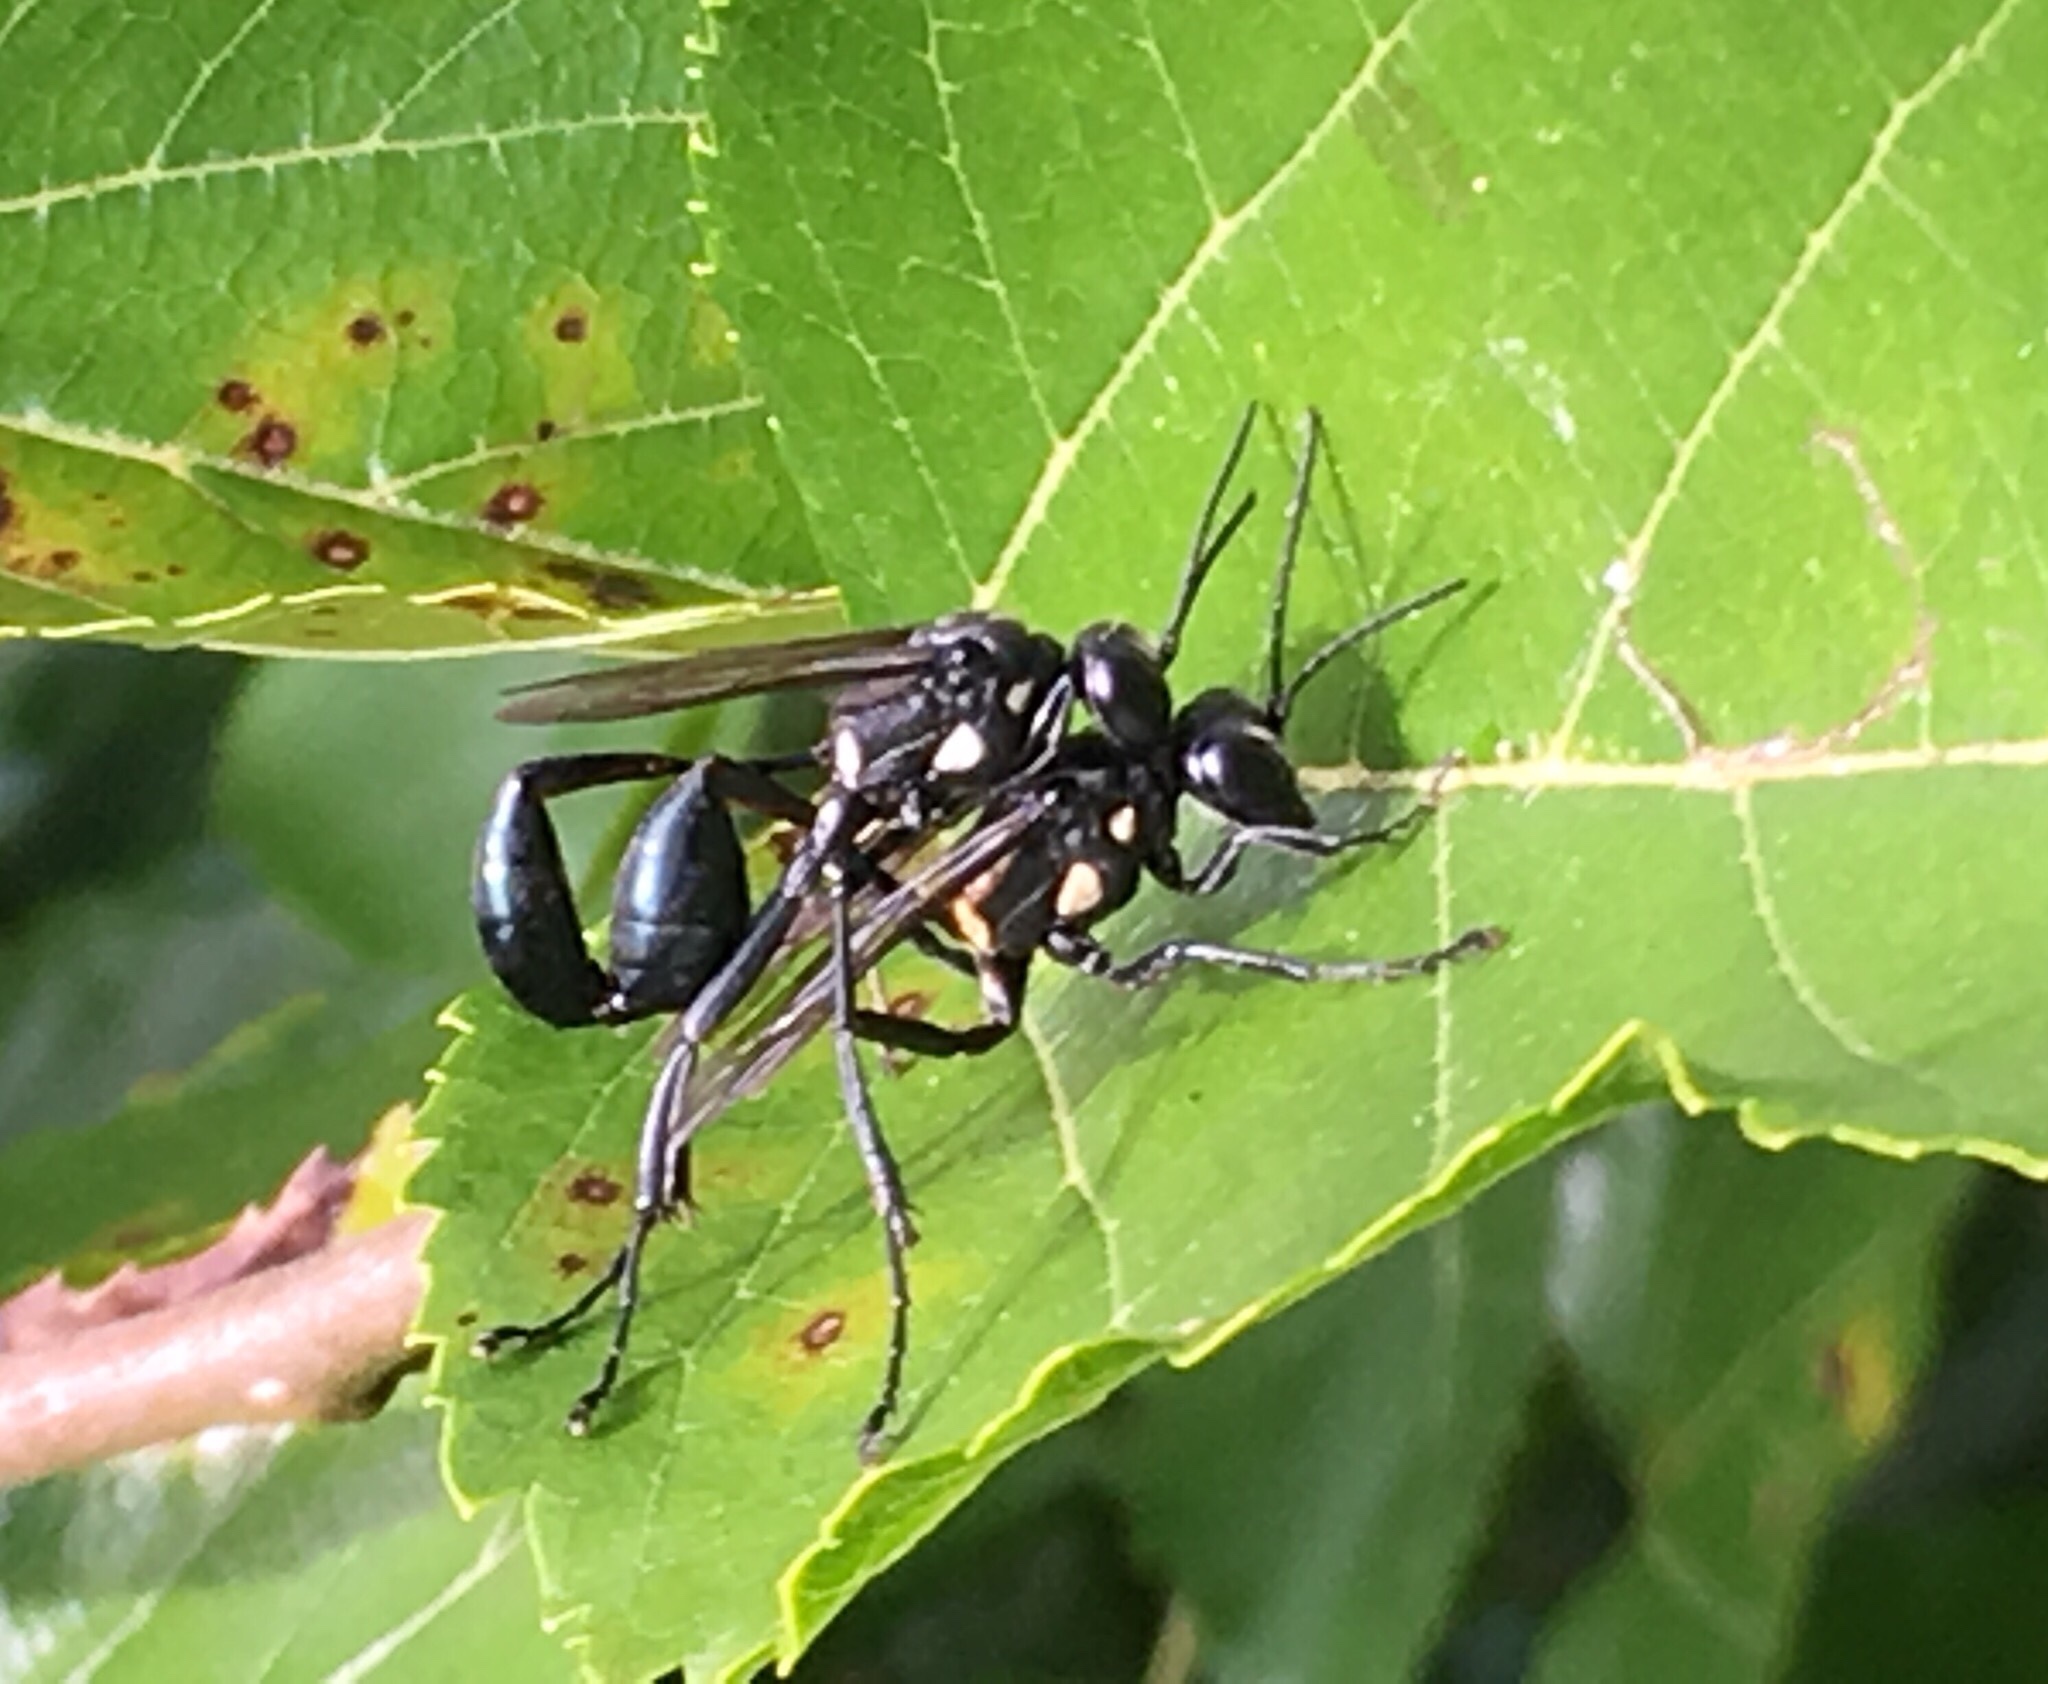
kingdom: Animalia
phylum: Arthropoda
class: Insecta
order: Hymenoptera
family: Sphecidae
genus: Eremnophila
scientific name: Eremnophila aureonotata
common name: Gold-marked thread-waisted wasp
